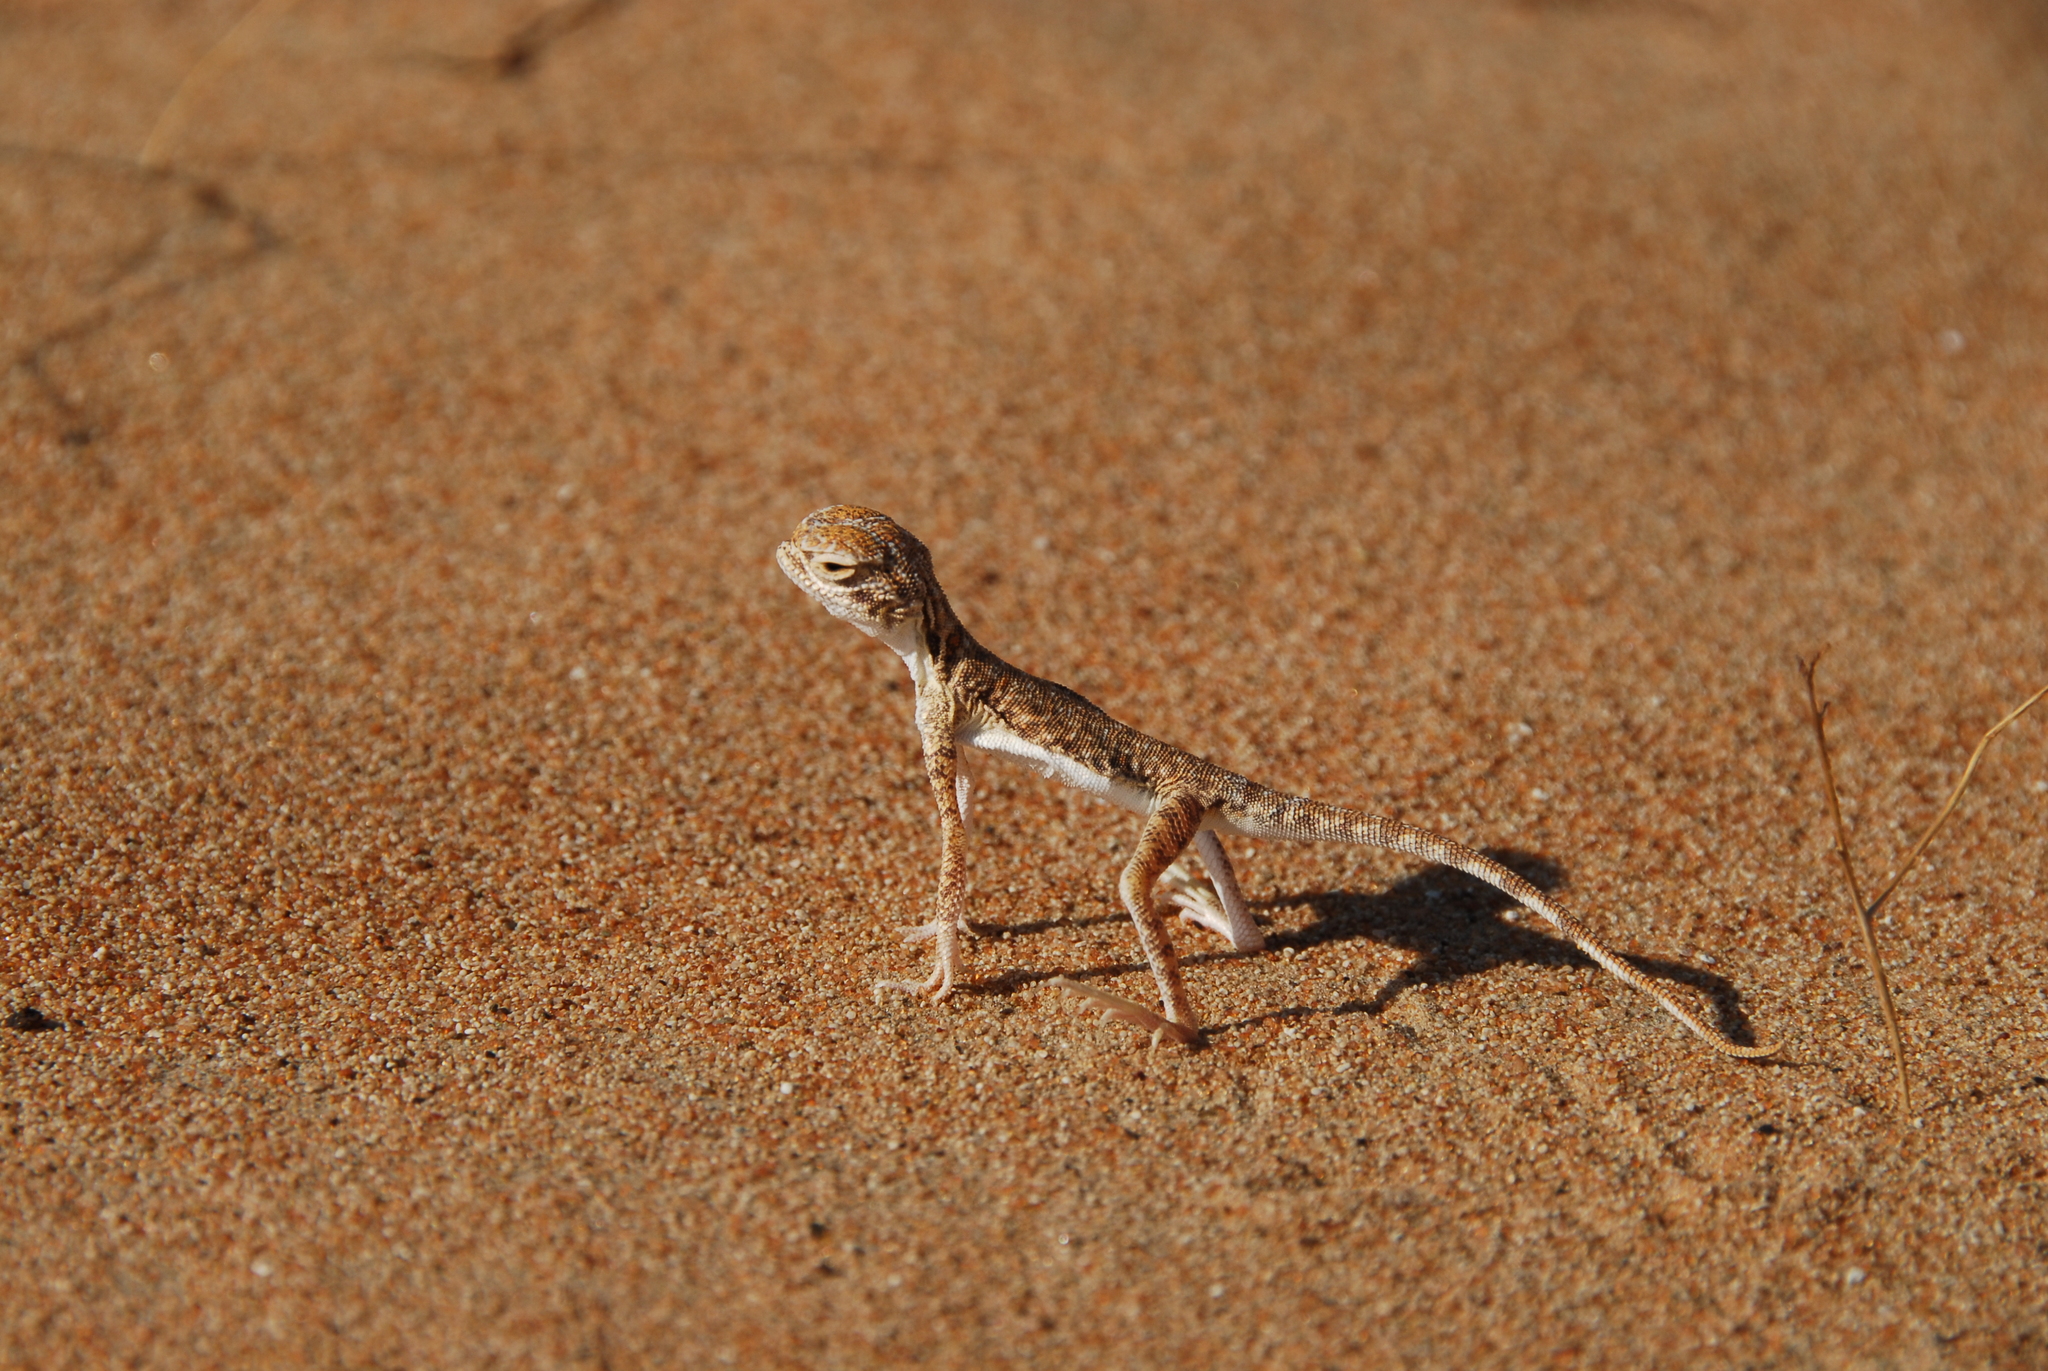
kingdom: Animalia
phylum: Chordata
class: Squamata
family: Agamidae
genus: Phrynocephalus
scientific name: Phrynocephalus arabicus
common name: Arabian toad-headed agama
